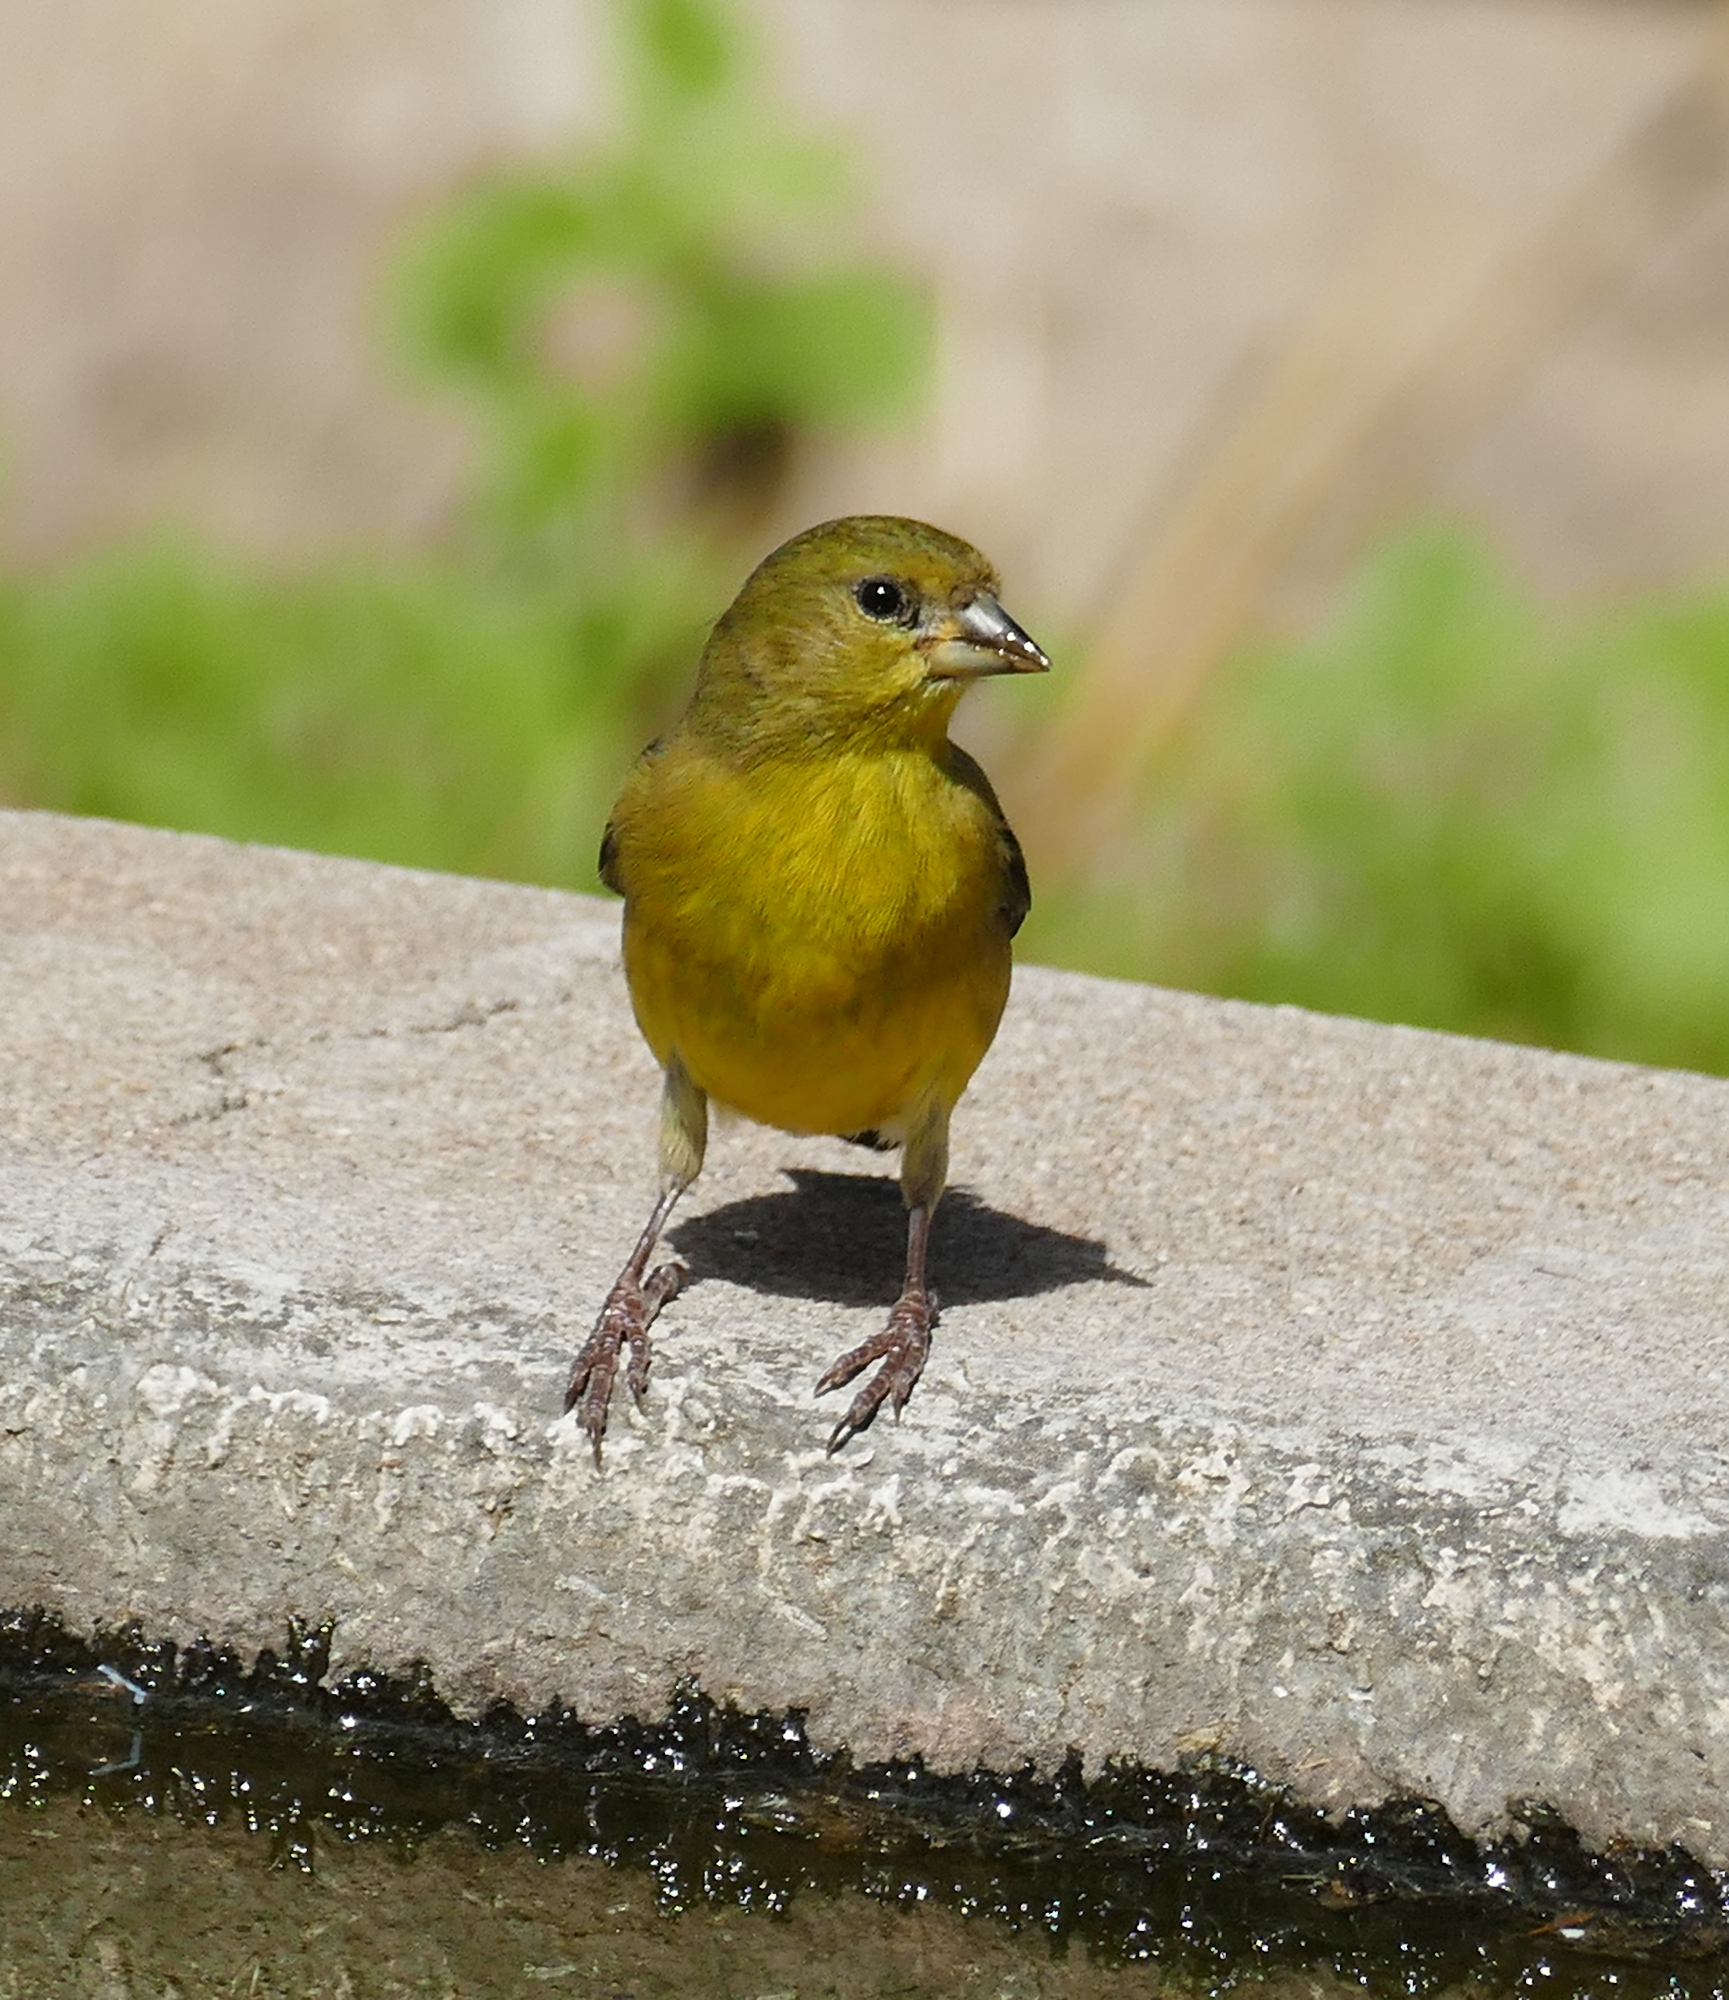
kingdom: Animalia
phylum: Chordata
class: Aves
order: Passeriformes
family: Fringillidae
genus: Spinus
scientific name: Spinus psaltria
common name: Lesser goldfinch
